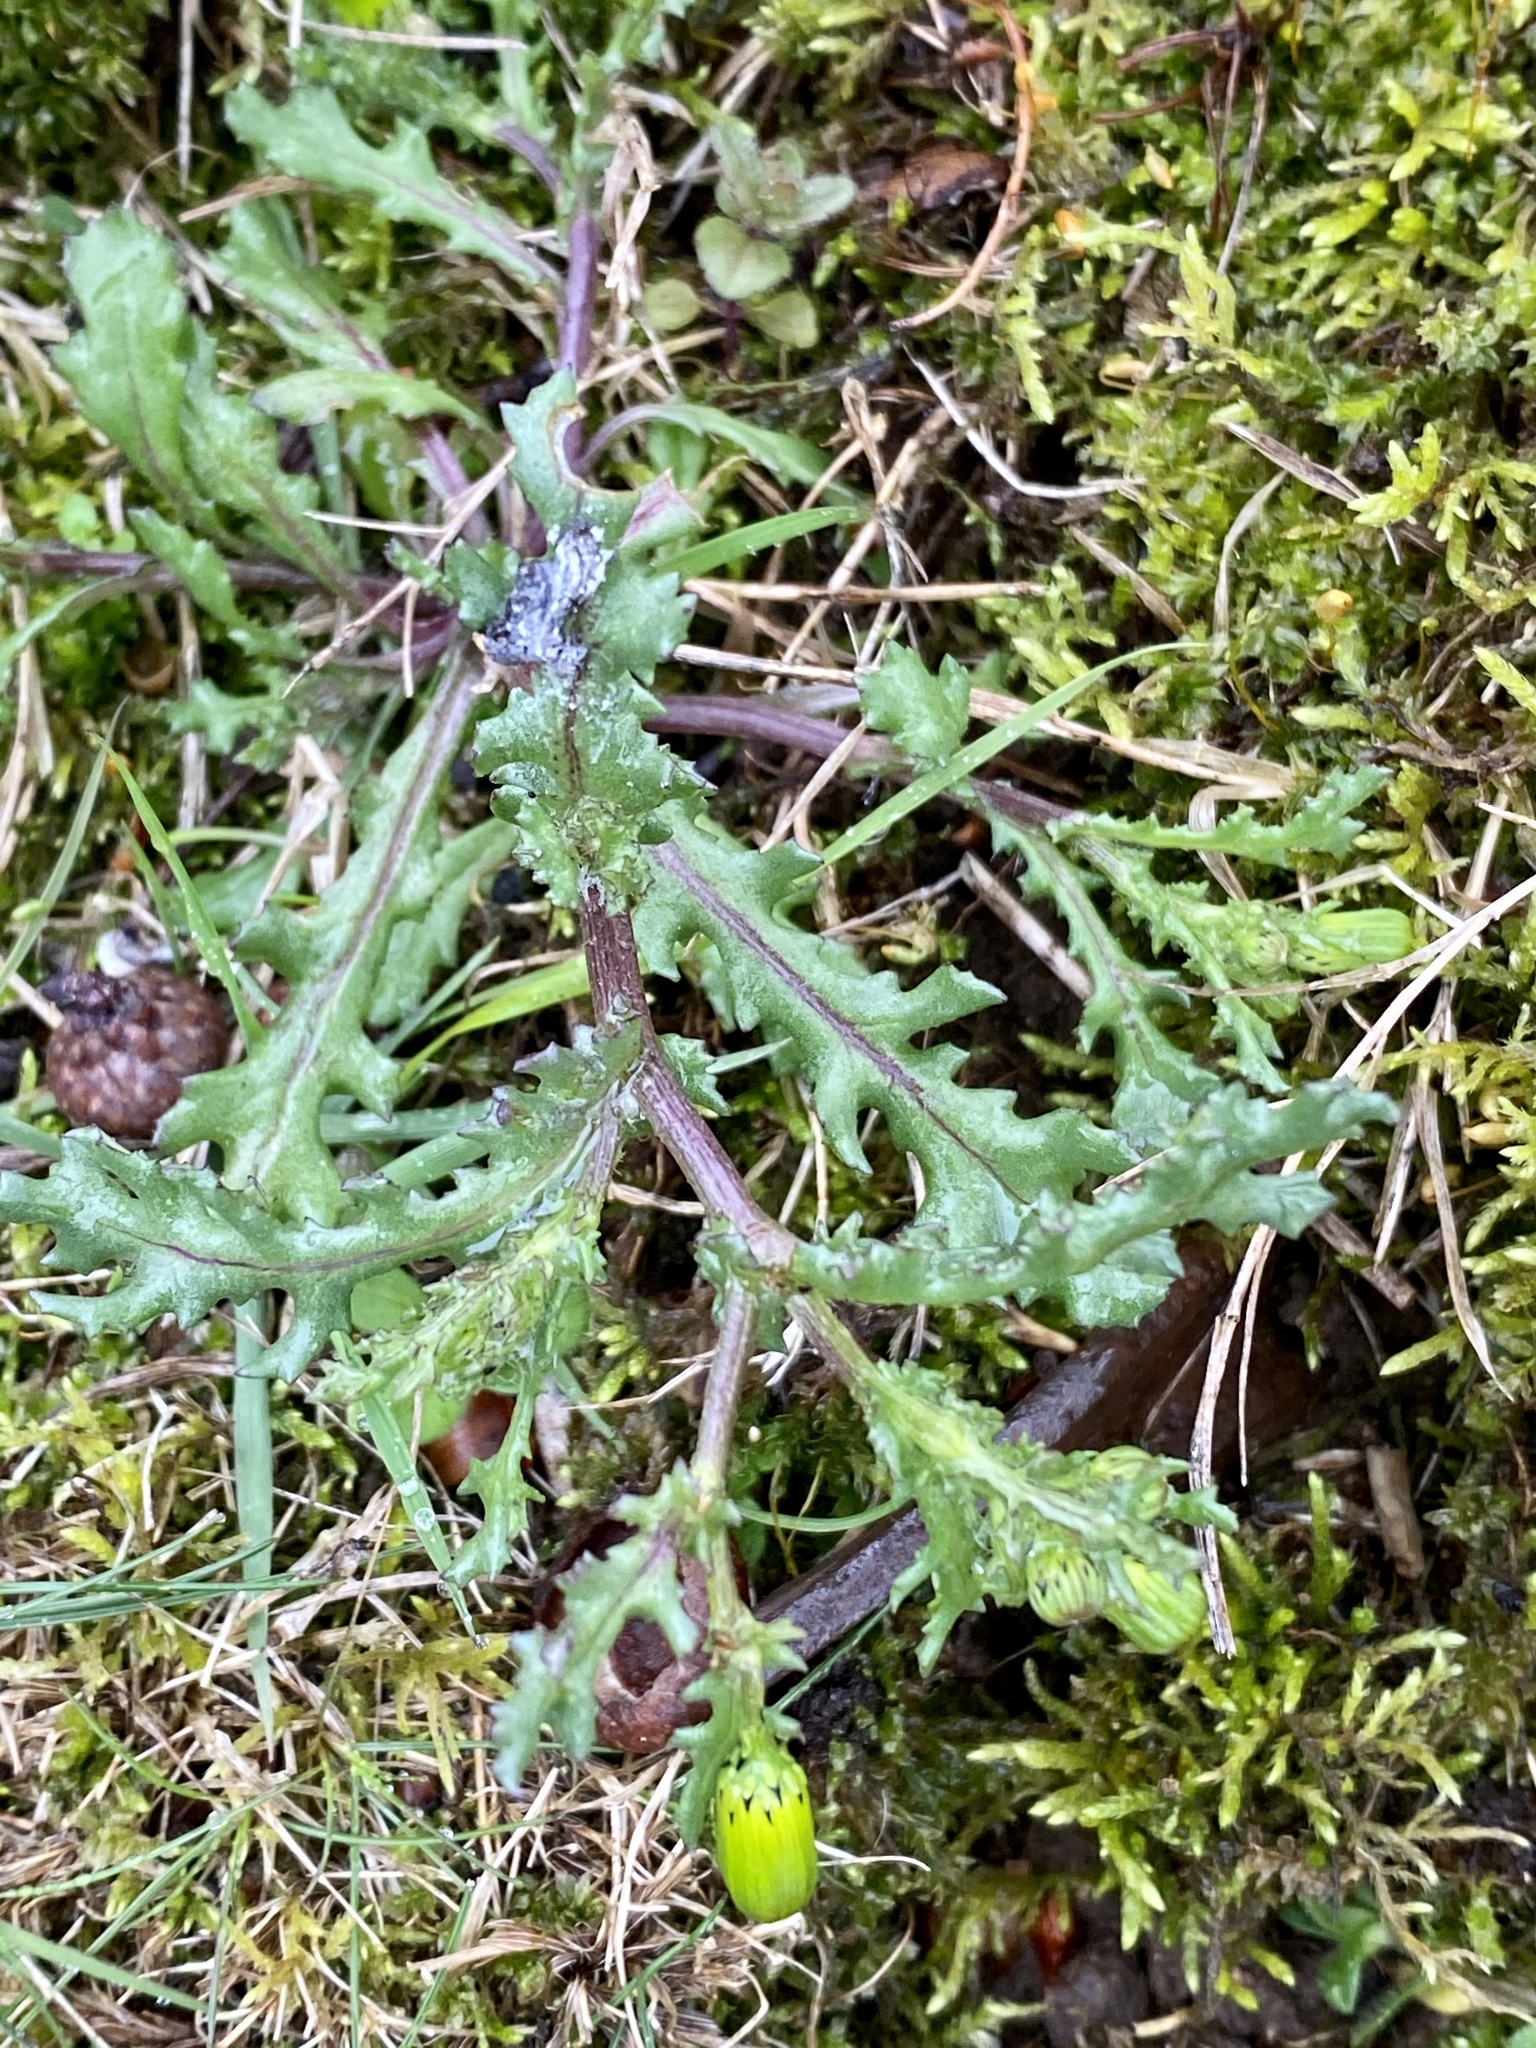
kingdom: Plantae
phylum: Tracheophyta
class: Magnoliopsida
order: Asterales
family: Asteraceae
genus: Senecio
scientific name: Senecio vulgaris
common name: Old-man-in-the-spring
